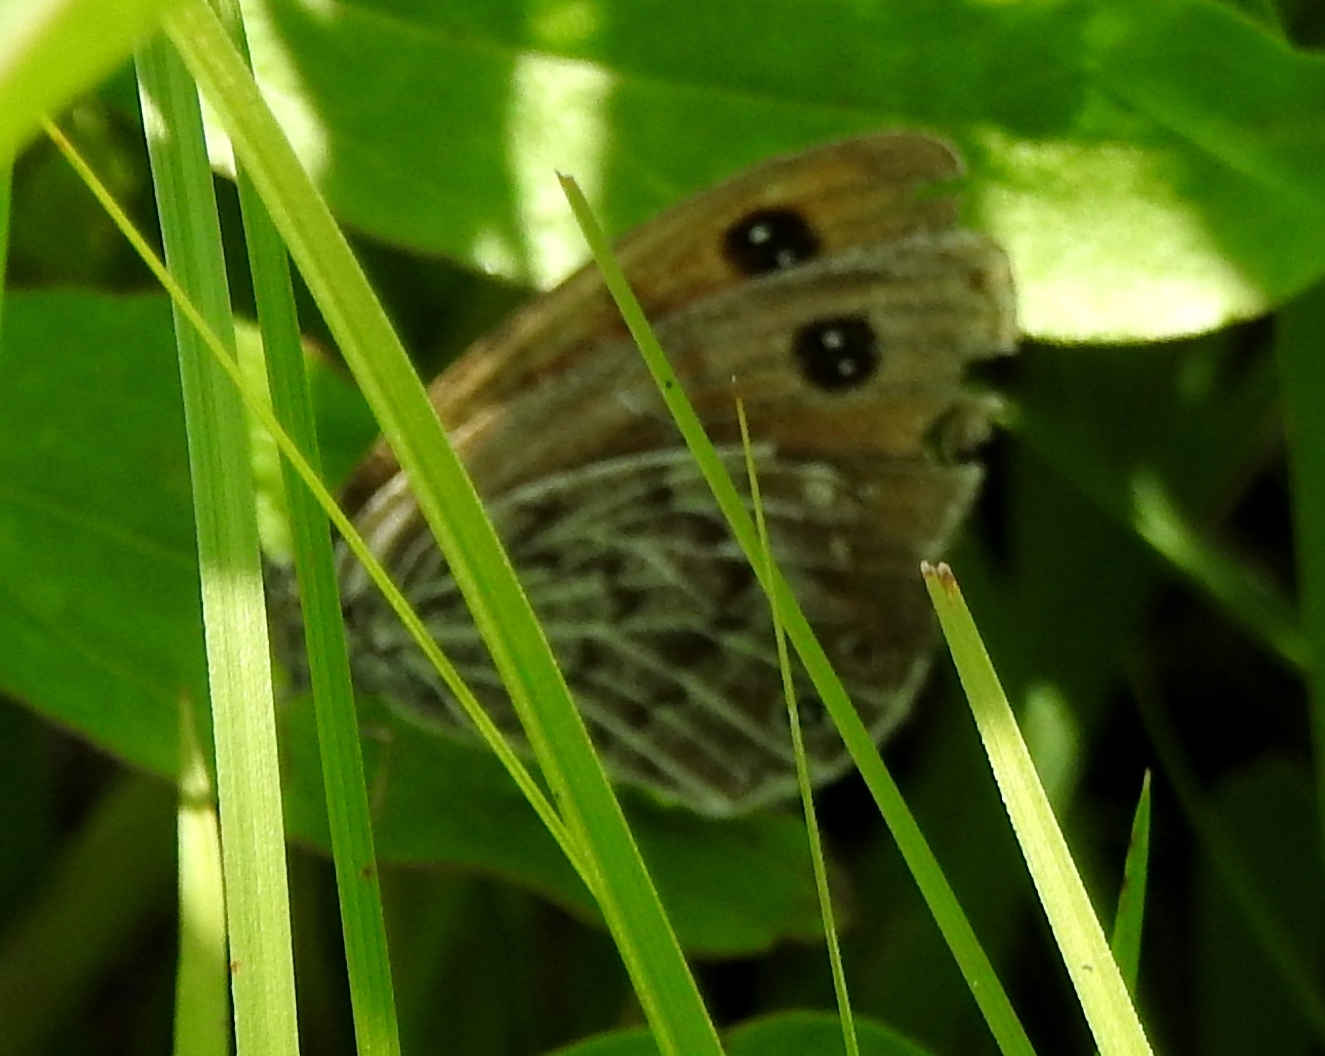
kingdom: Animalia
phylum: Arthropoda
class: Insecta
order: Lepidoptera
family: Nymphalidae
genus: Erebia
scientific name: Erebia Boeberia parmenio
